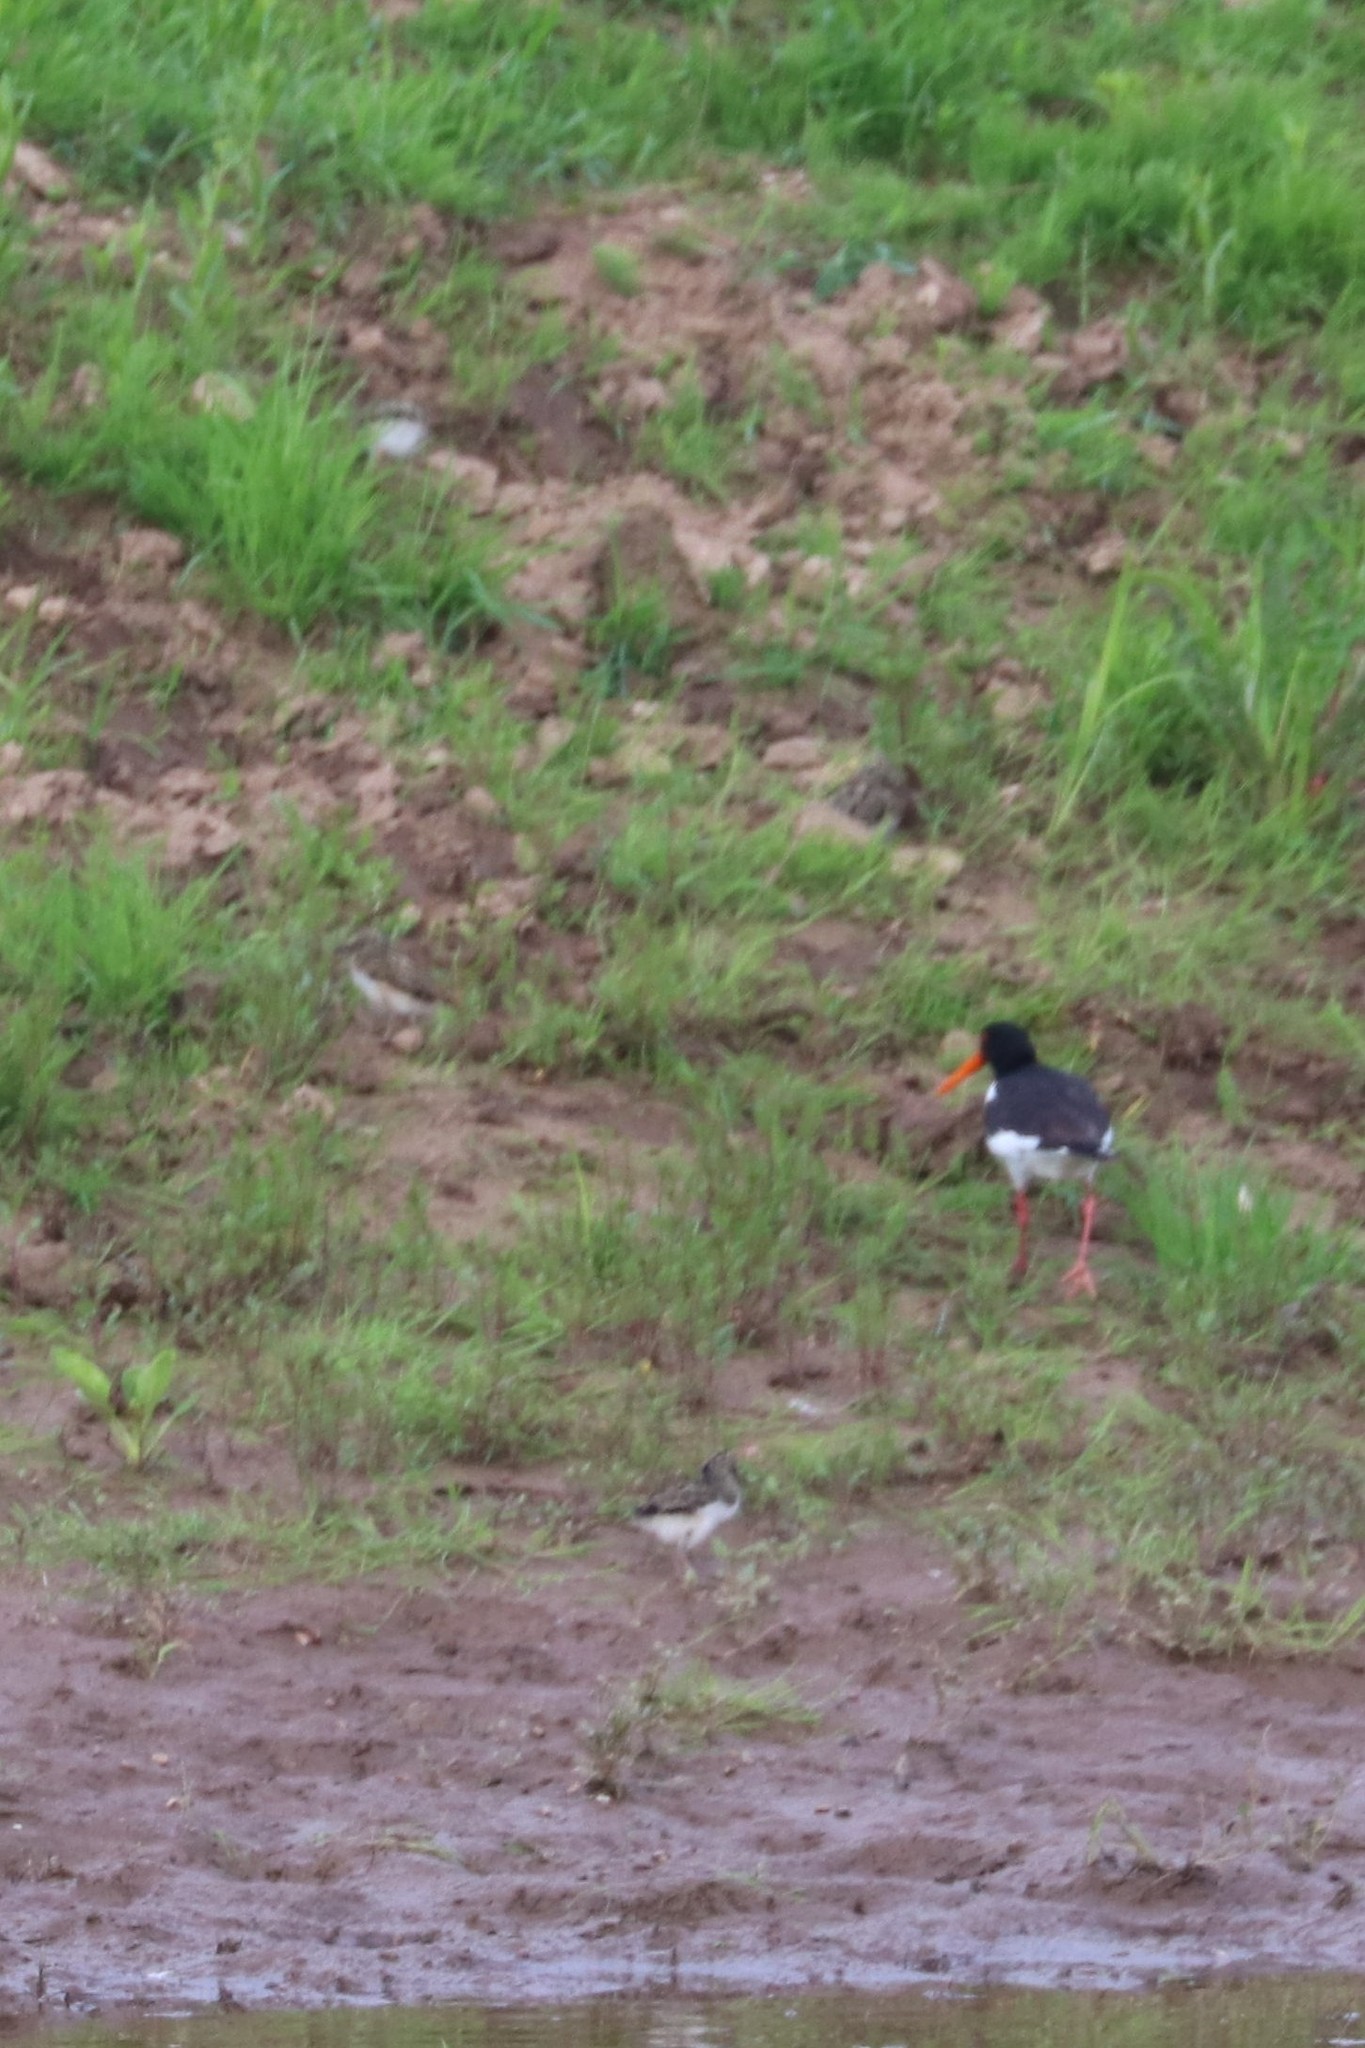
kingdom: Animalia
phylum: Chordata
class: Aves
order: Charadriiformes
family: Haematopodidae
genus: Haematopus
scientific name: Haematopus ostralegus
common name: Eurasian oystercatcher
